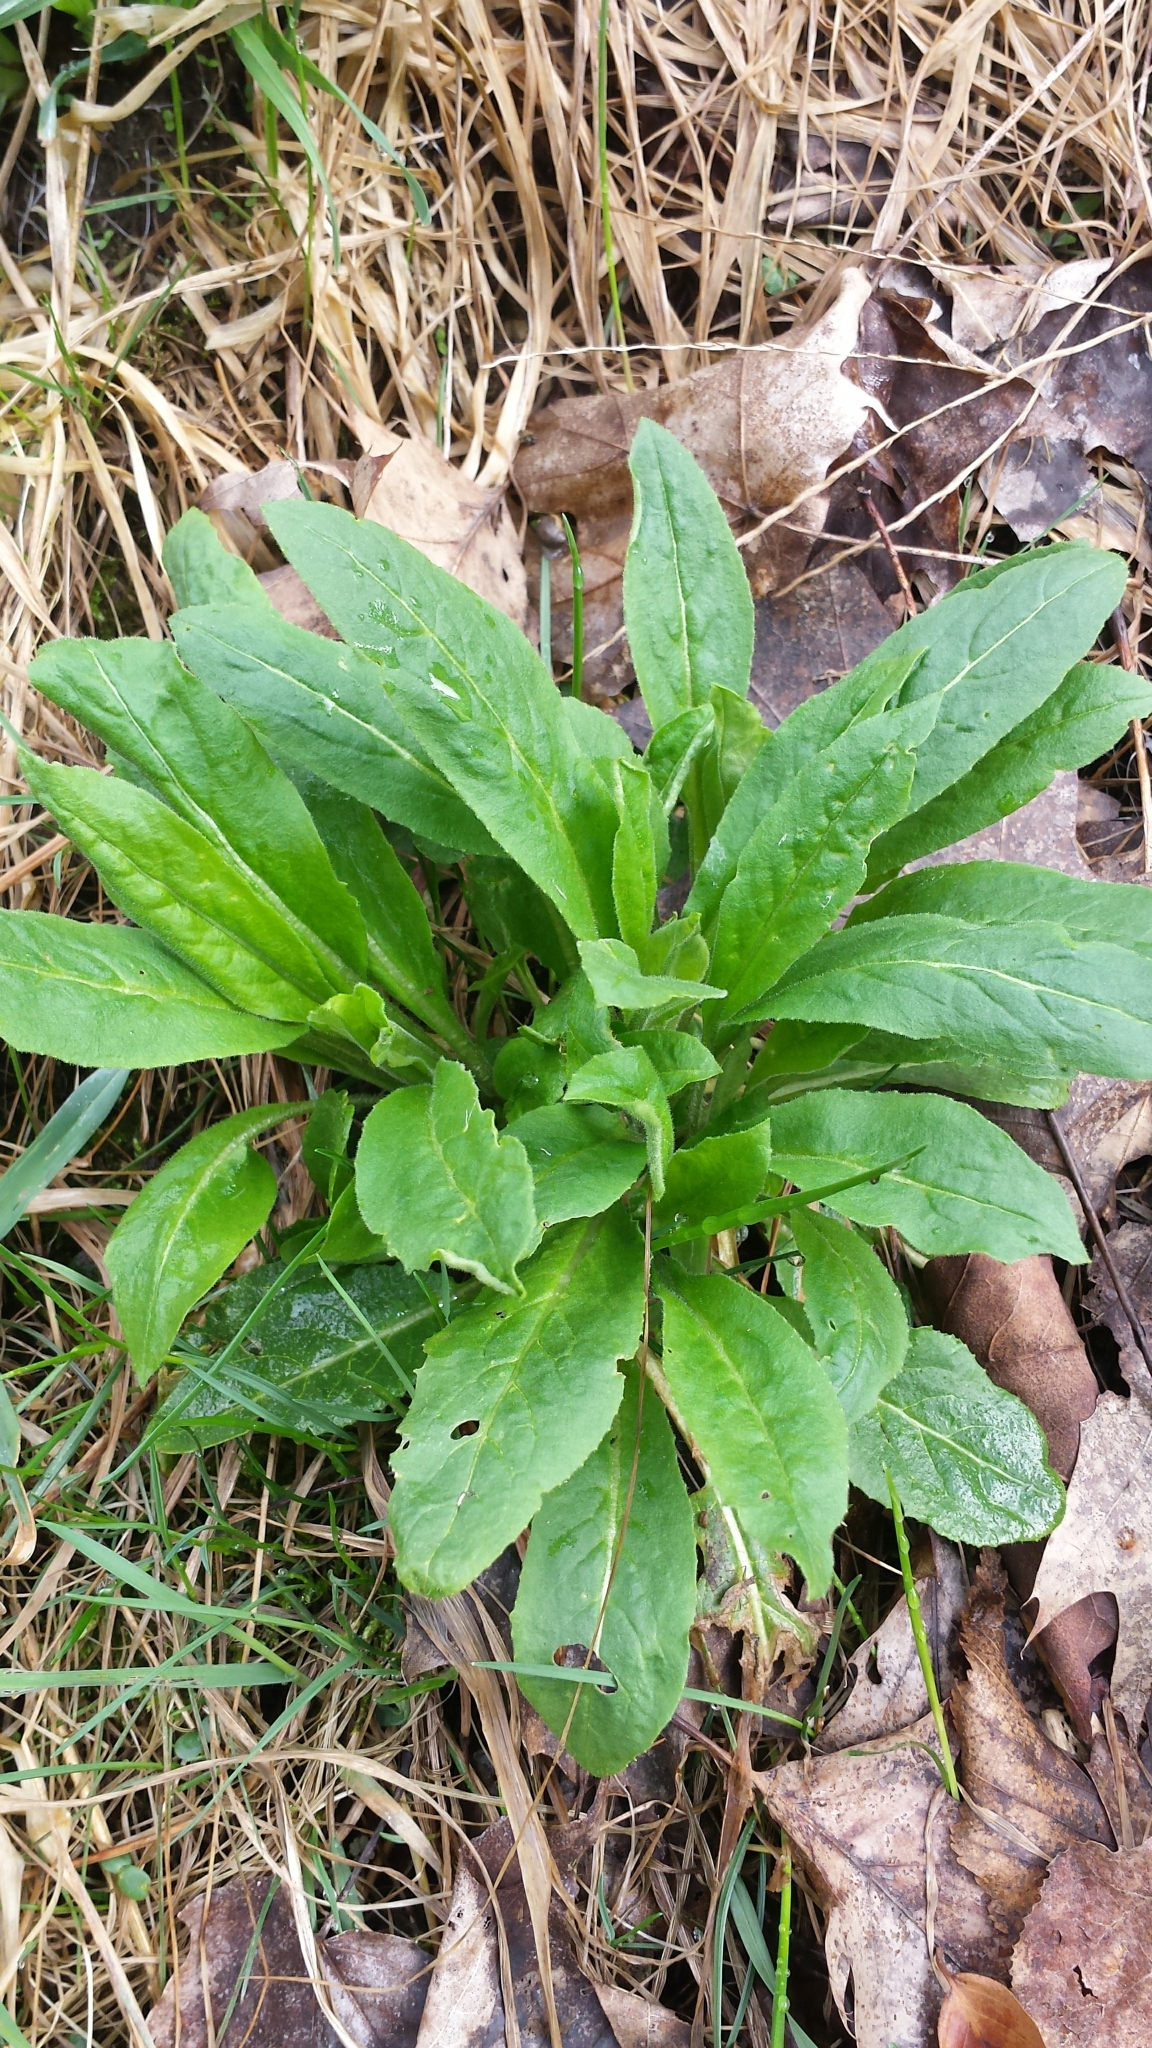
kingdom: Plantae
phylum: Tracheophyta
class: Magnoliopsida
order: Brassicales
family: Brassicaceae
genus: Hesperis
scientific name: Hesperis matronalis
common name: Dame's-violet
